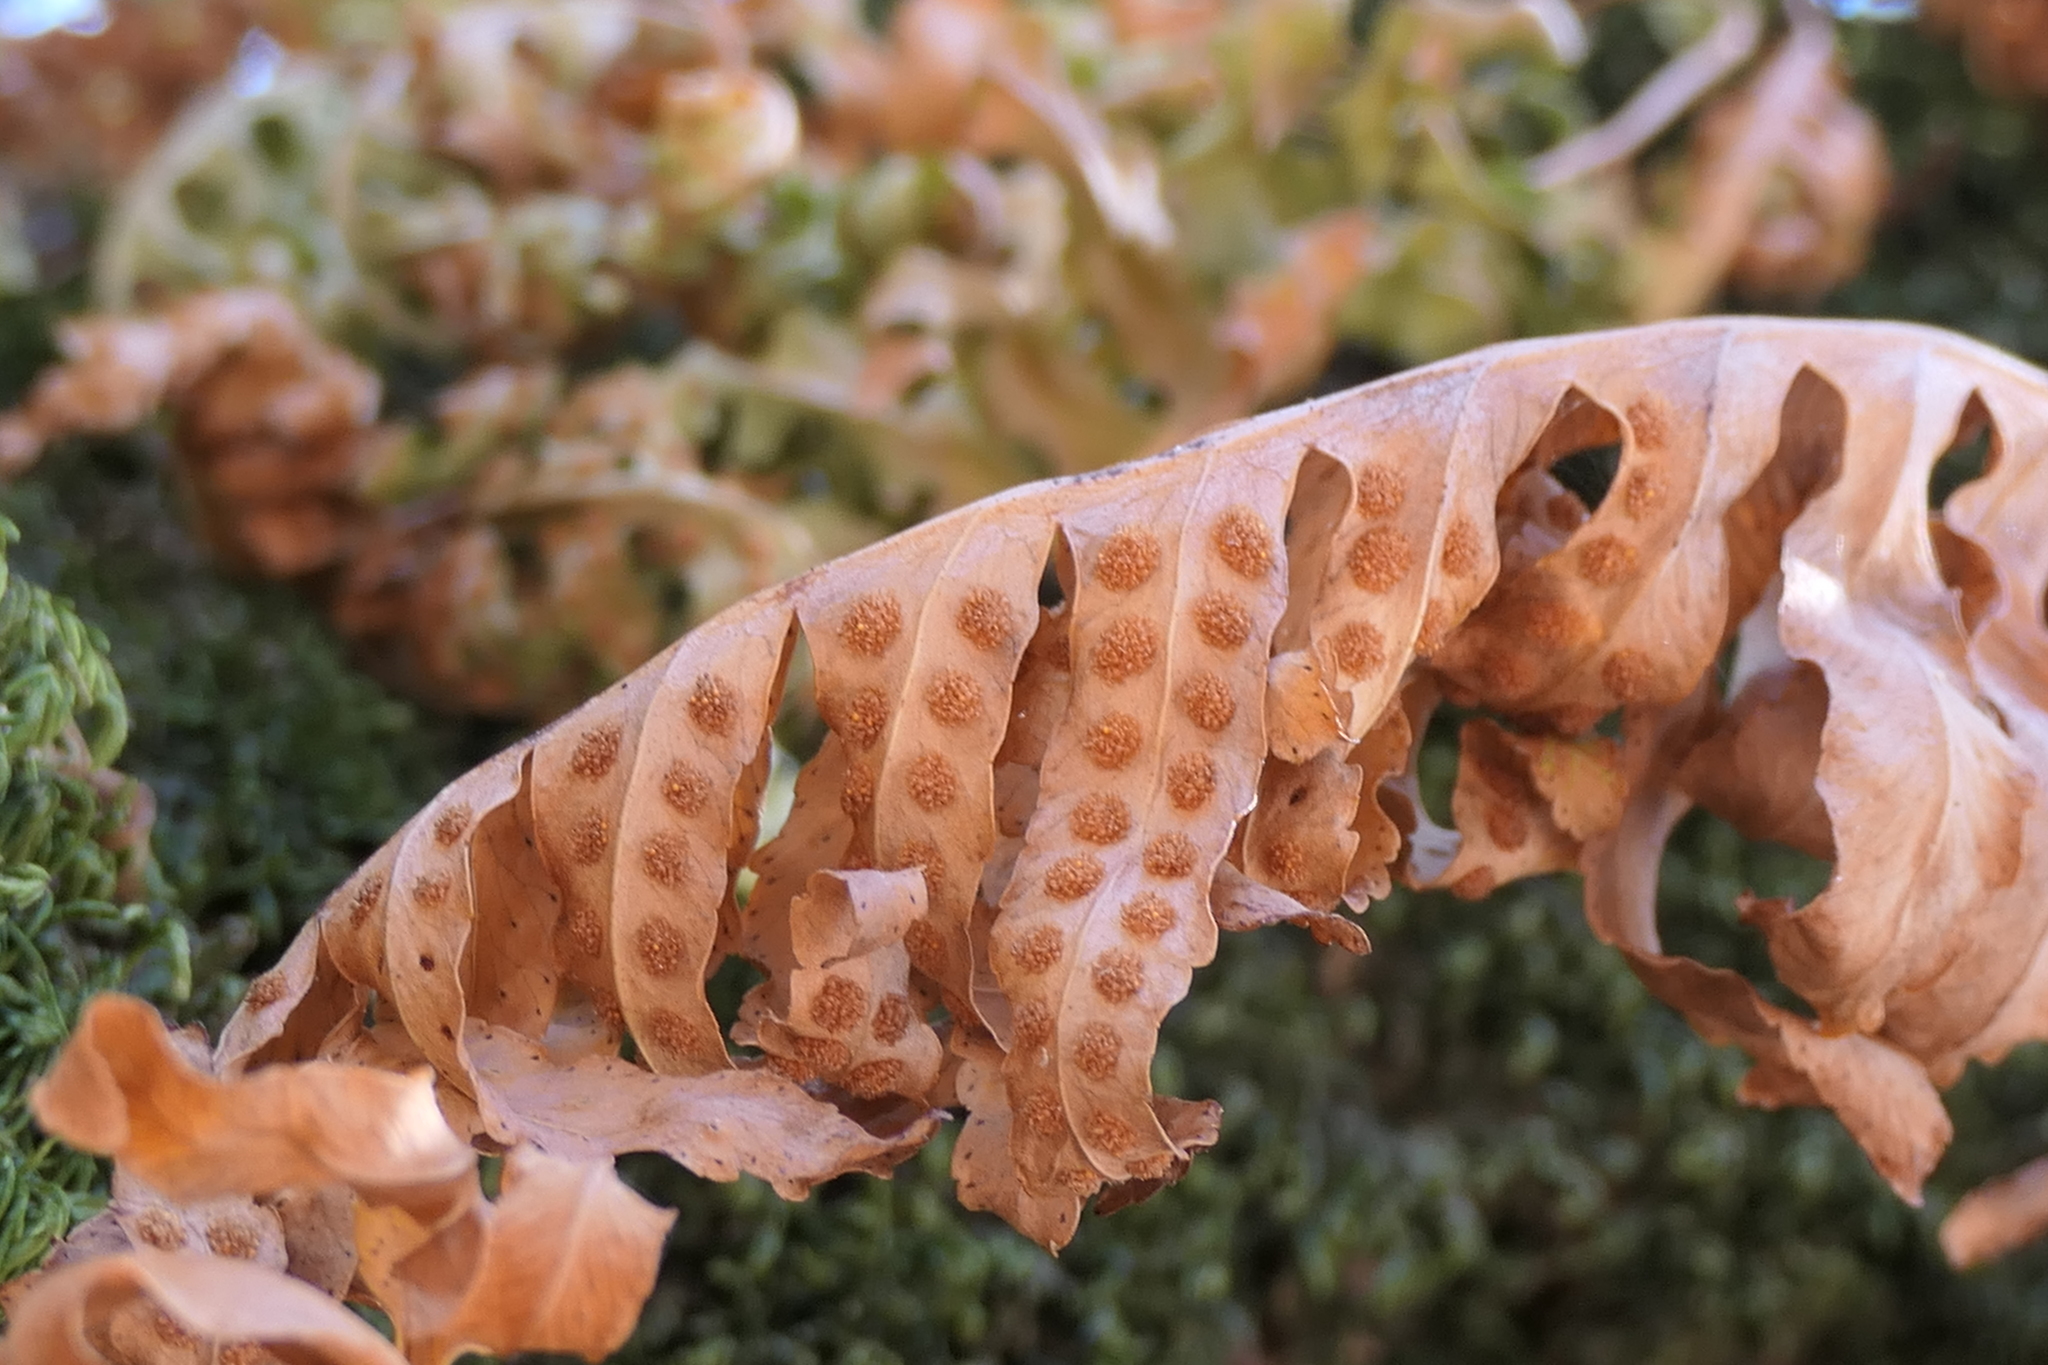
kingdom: Plantae
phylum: Tracheophyta
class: Polypodiopsida
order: Polypodiales
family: Polypodiaceae
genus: Polypodium
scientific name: Polypodium cambricum
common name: Southern polypody
